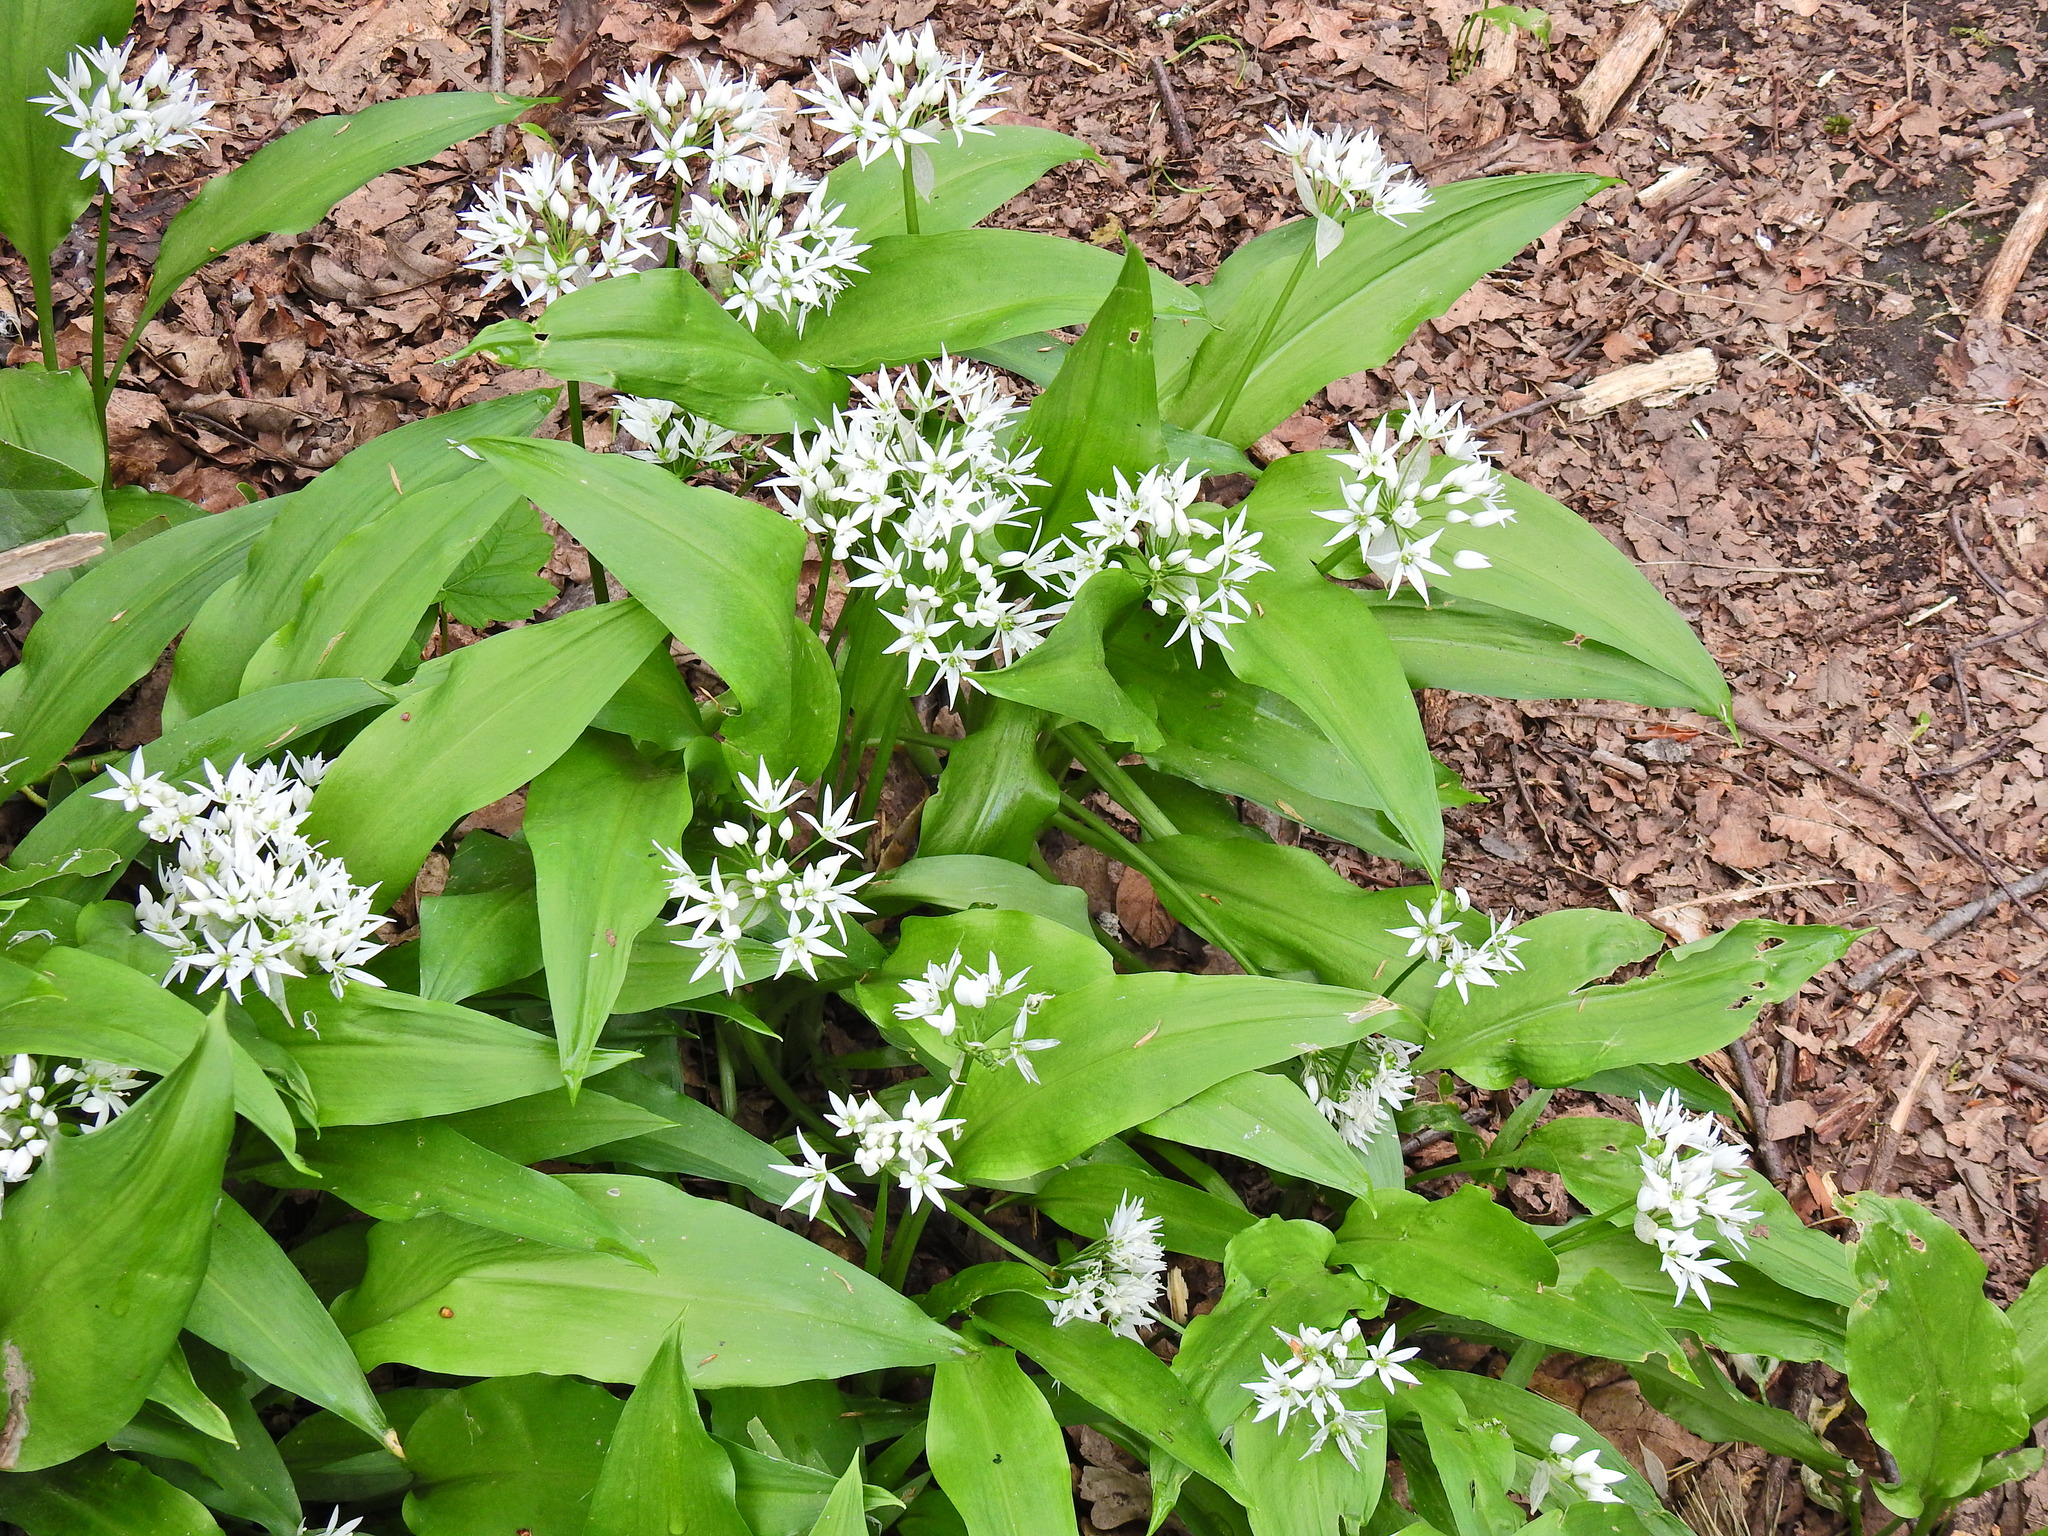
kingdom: Plantae
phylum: Tracheophyta
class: Liliopsida
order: Asparagales
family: Amaryllidaceae
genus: Allium
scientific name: Allium ursinum
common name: Ramsons
